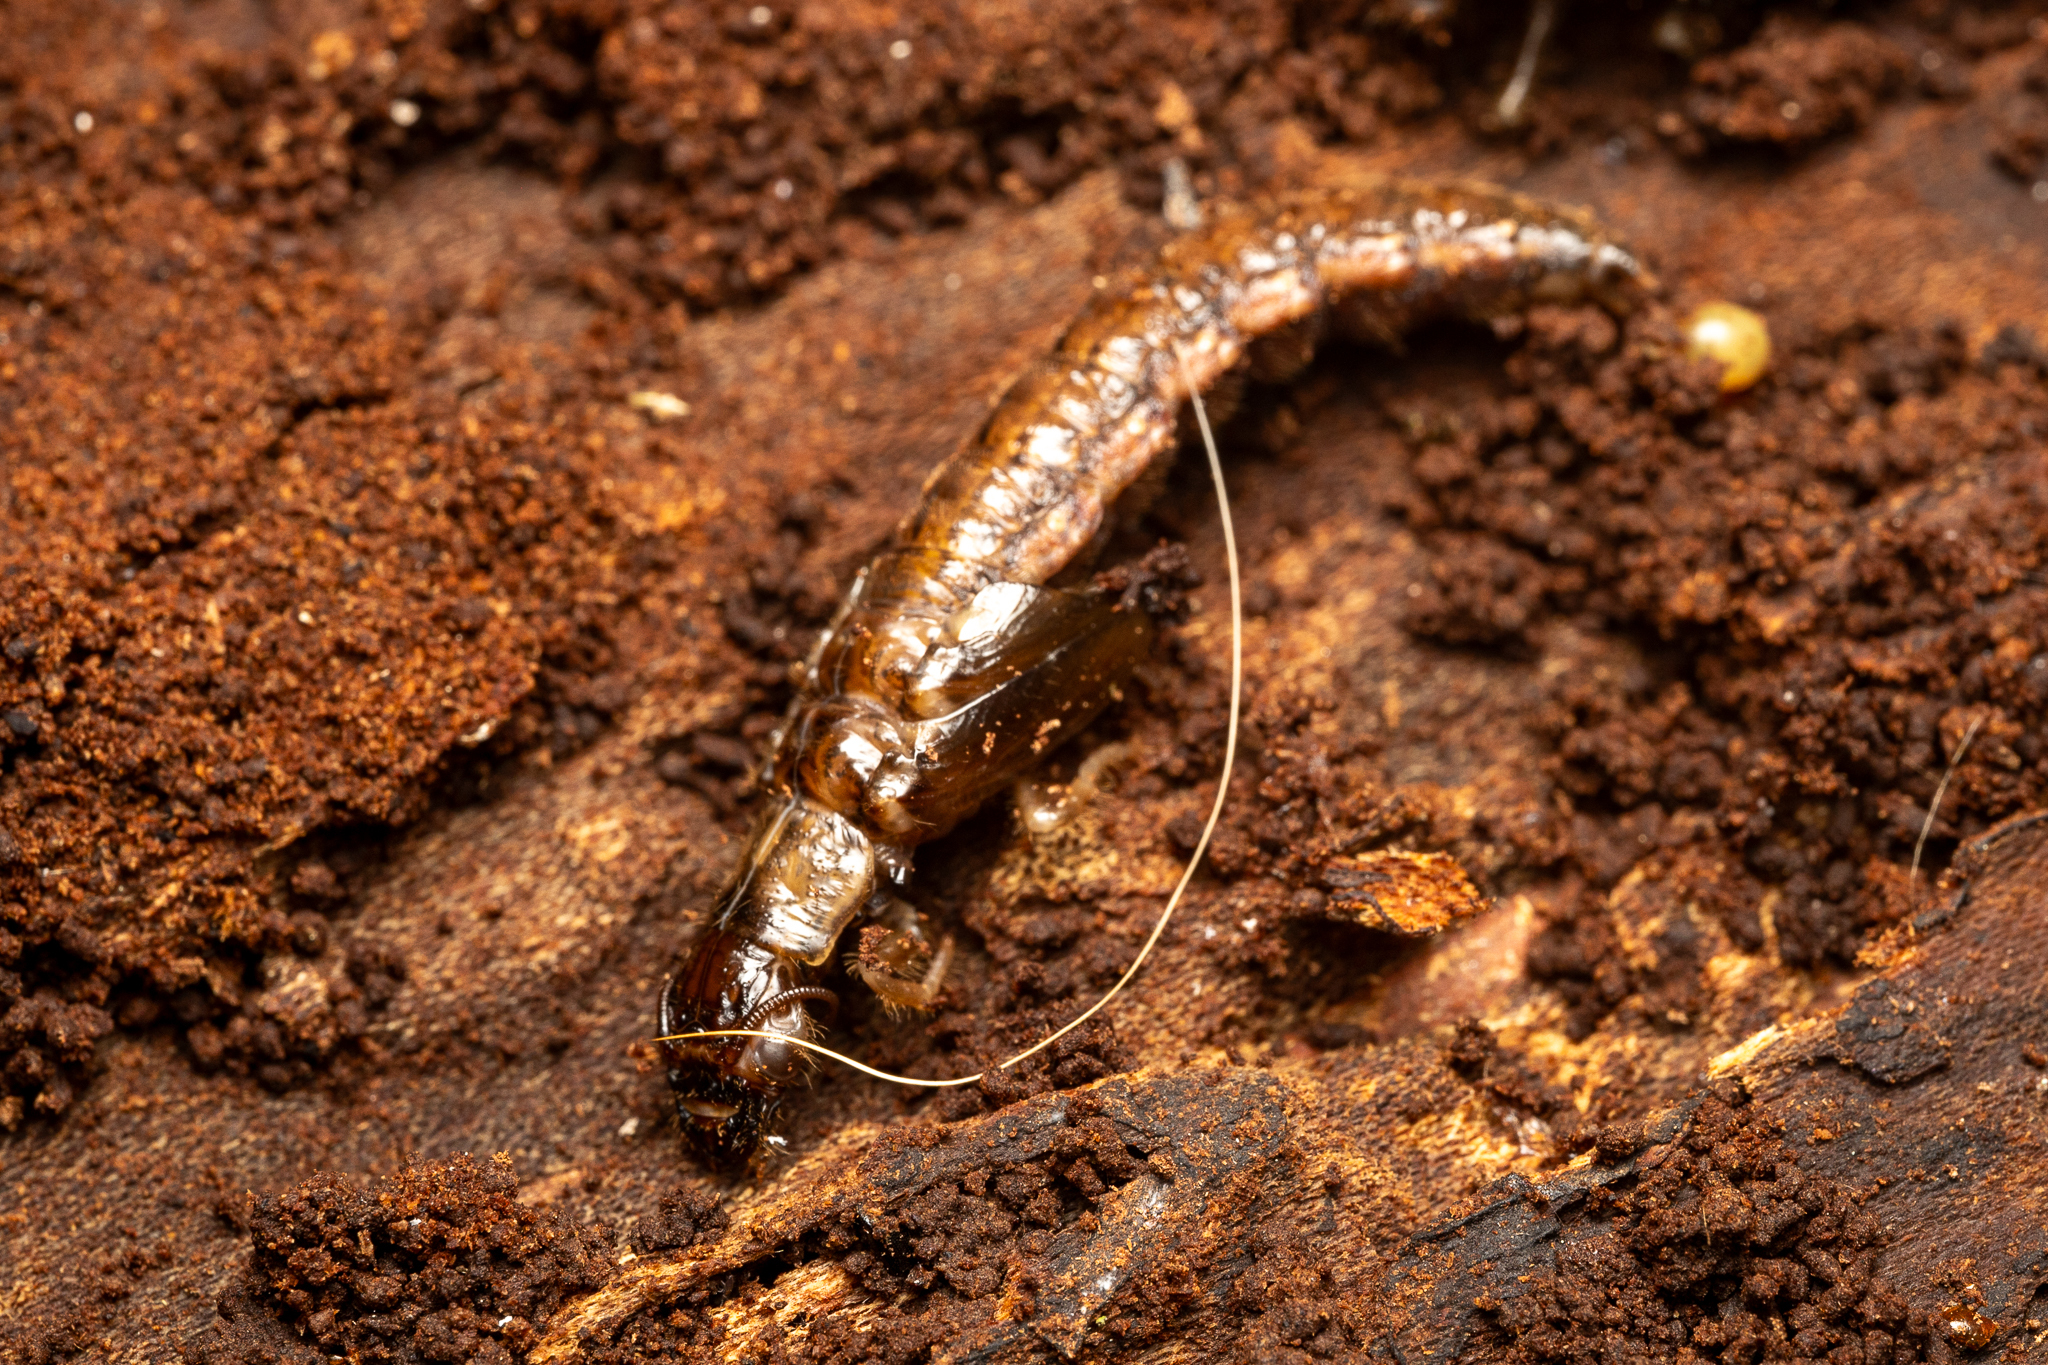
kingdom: Animalia
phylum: Arthropoda
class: Insecta
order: Megaloptera
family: Corydalidae
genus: Chauliodes
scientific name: Chauliodes rastricornis
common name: Spring fishfly
